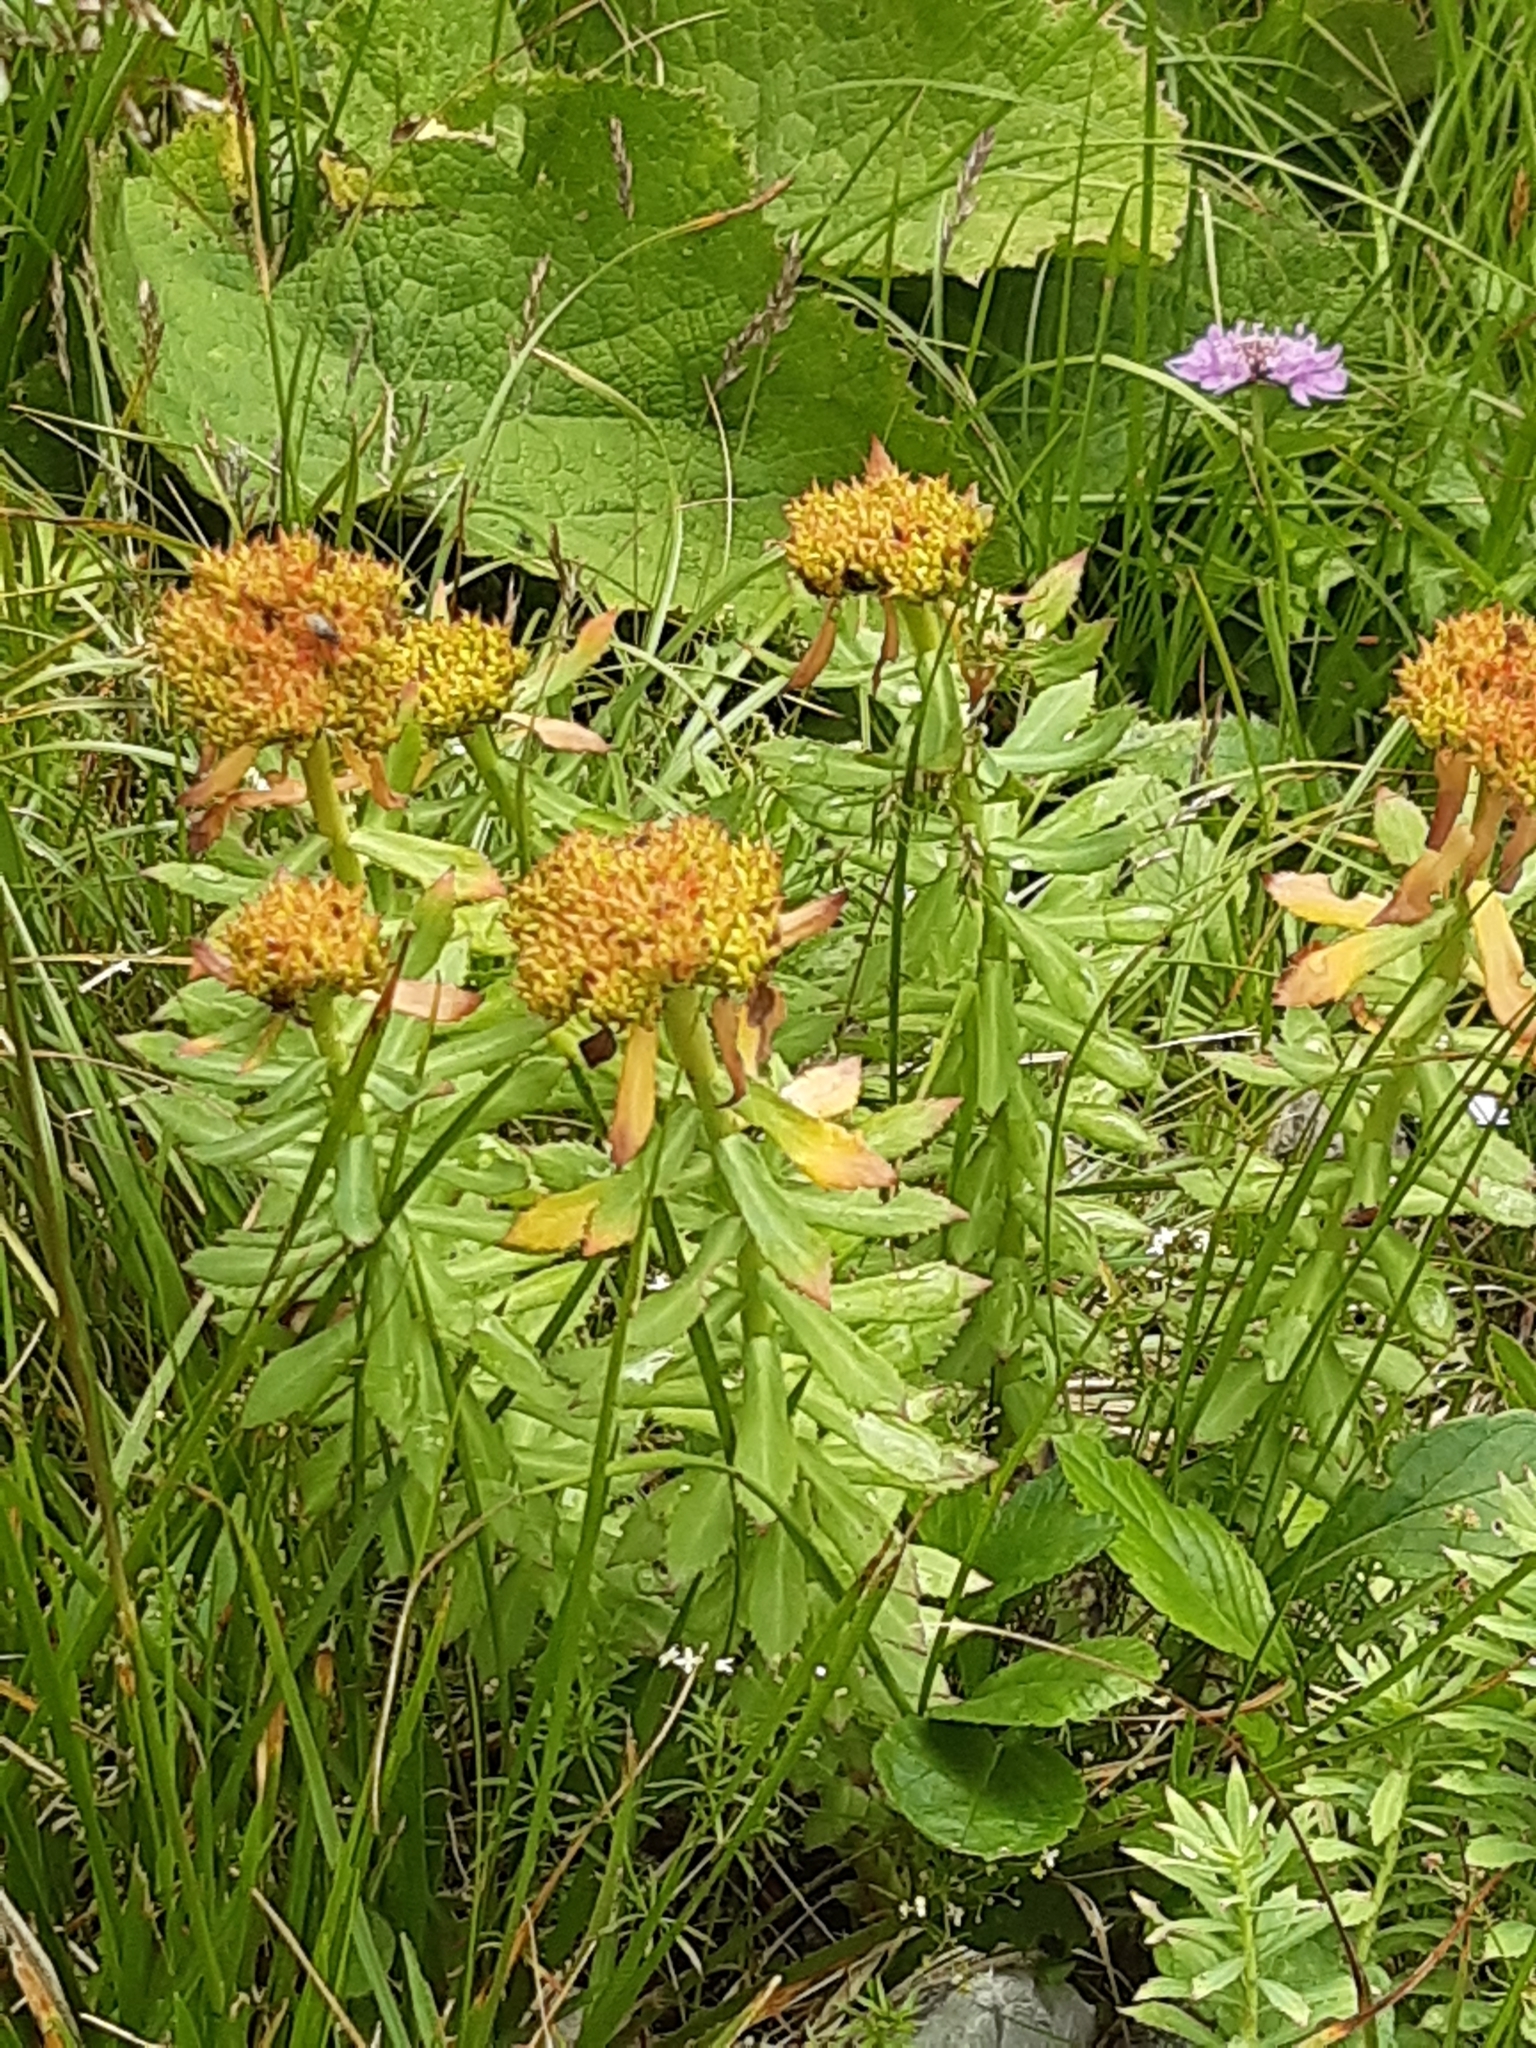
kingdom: Plantae
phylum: Tracheophyta
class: Magnoliopsida
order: Saxifragales
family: Crassulaceae
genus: Rhodiola
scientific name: Rhodiola rosea
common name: Roseroot
